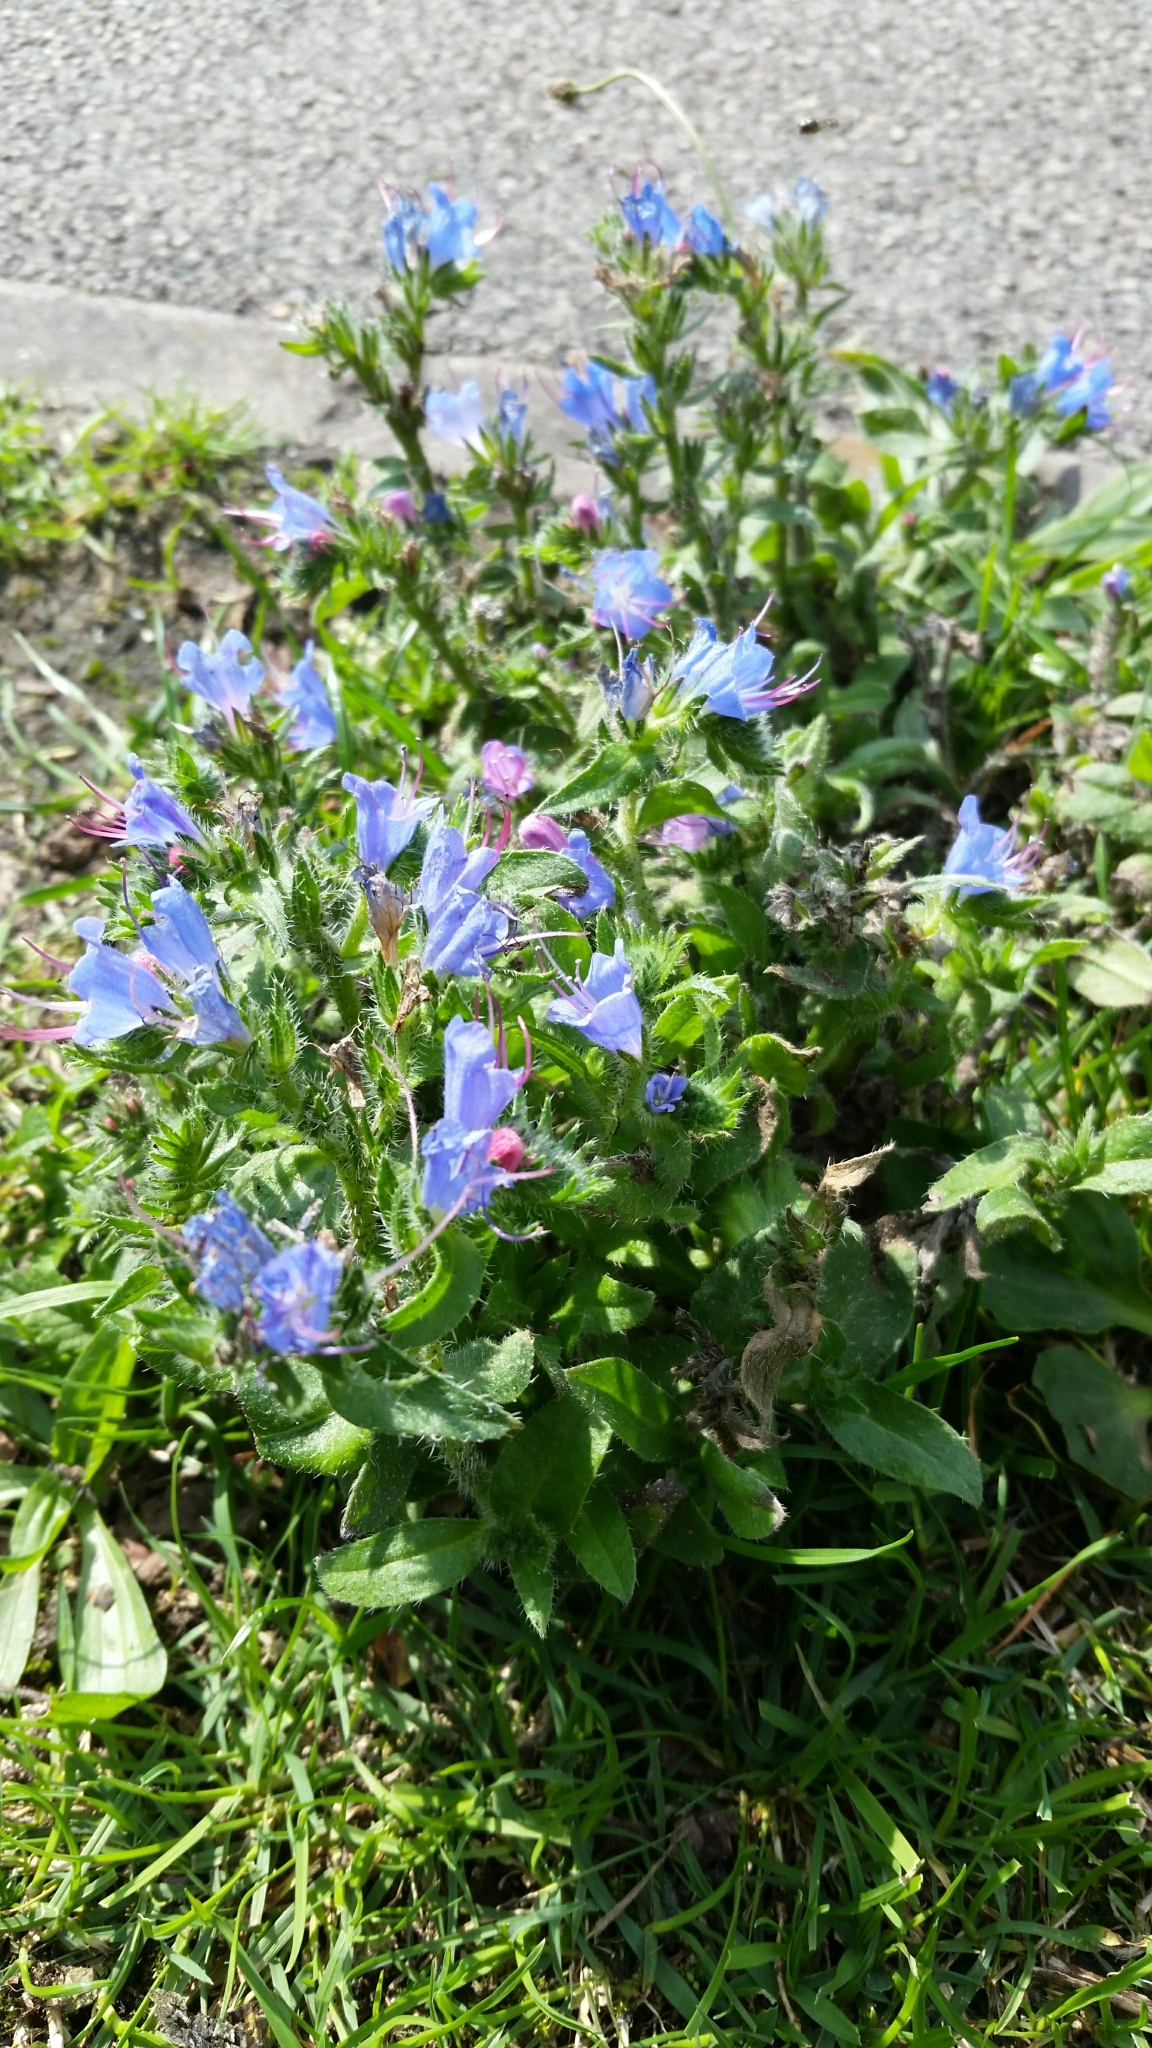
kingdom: Plantae
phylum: Tracheophyta
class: Magnoliopsida
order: Boraginales
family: Boraginaceae
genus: Echium
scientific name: Echium vulgare
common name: Common viper's bugloss
